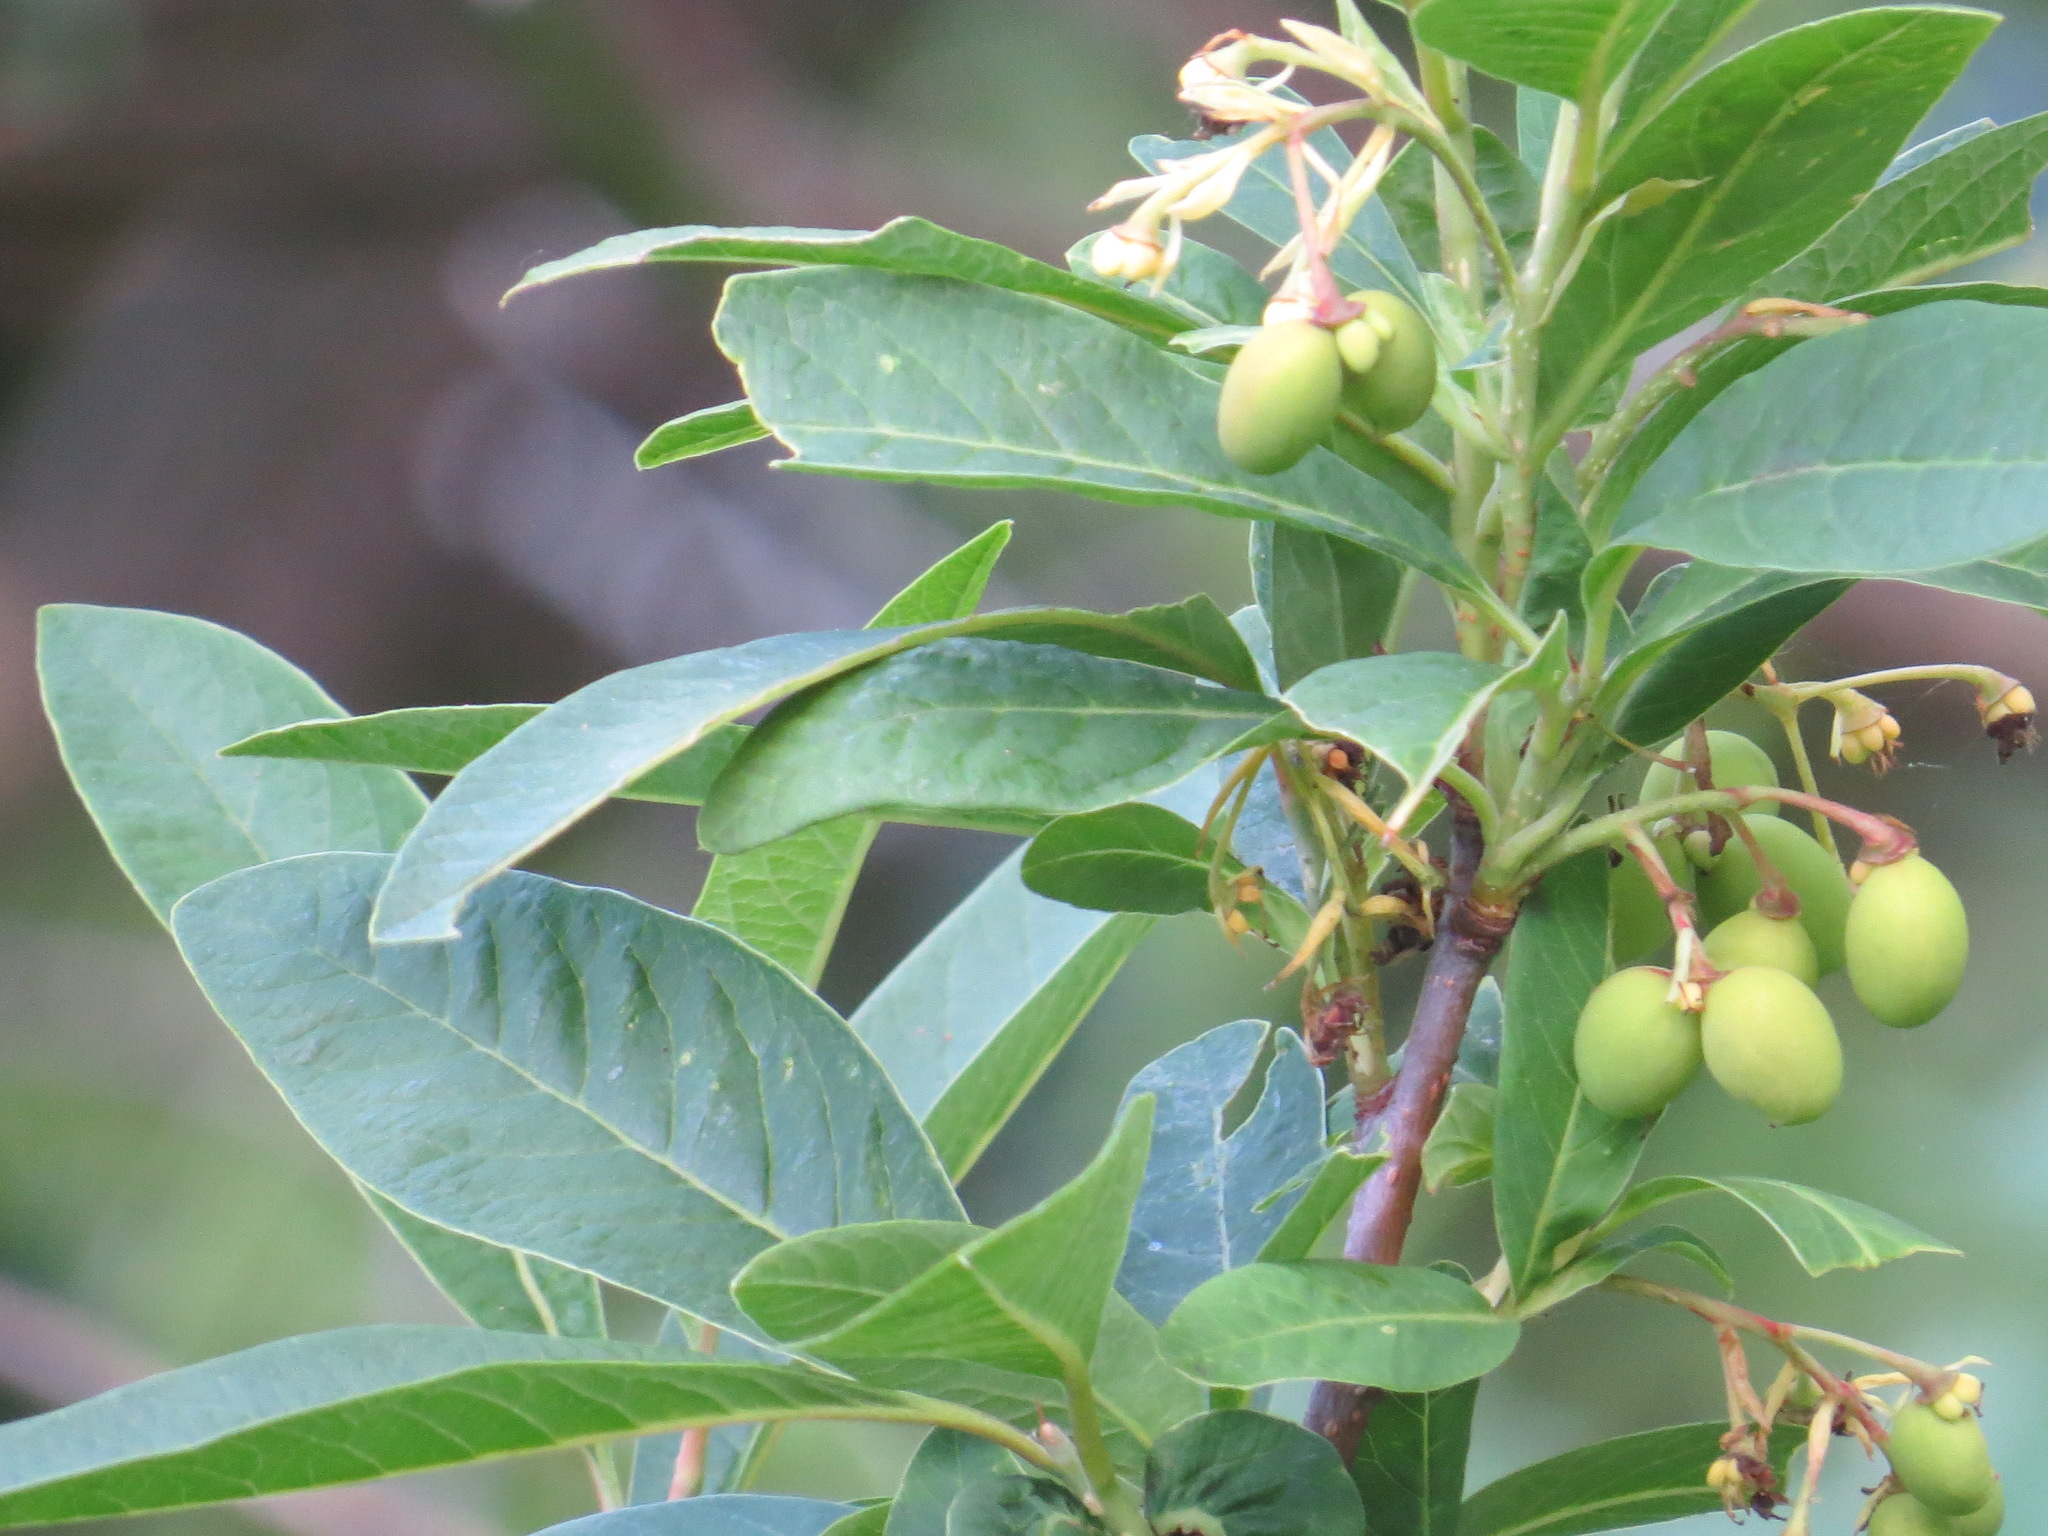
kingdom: Plantae
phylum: Tracheophyta
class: Magnoliopsida
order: Rosales
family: Rosaceae
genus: Oemleria
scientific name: Oemleria cerasiformis
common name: Osoberry
